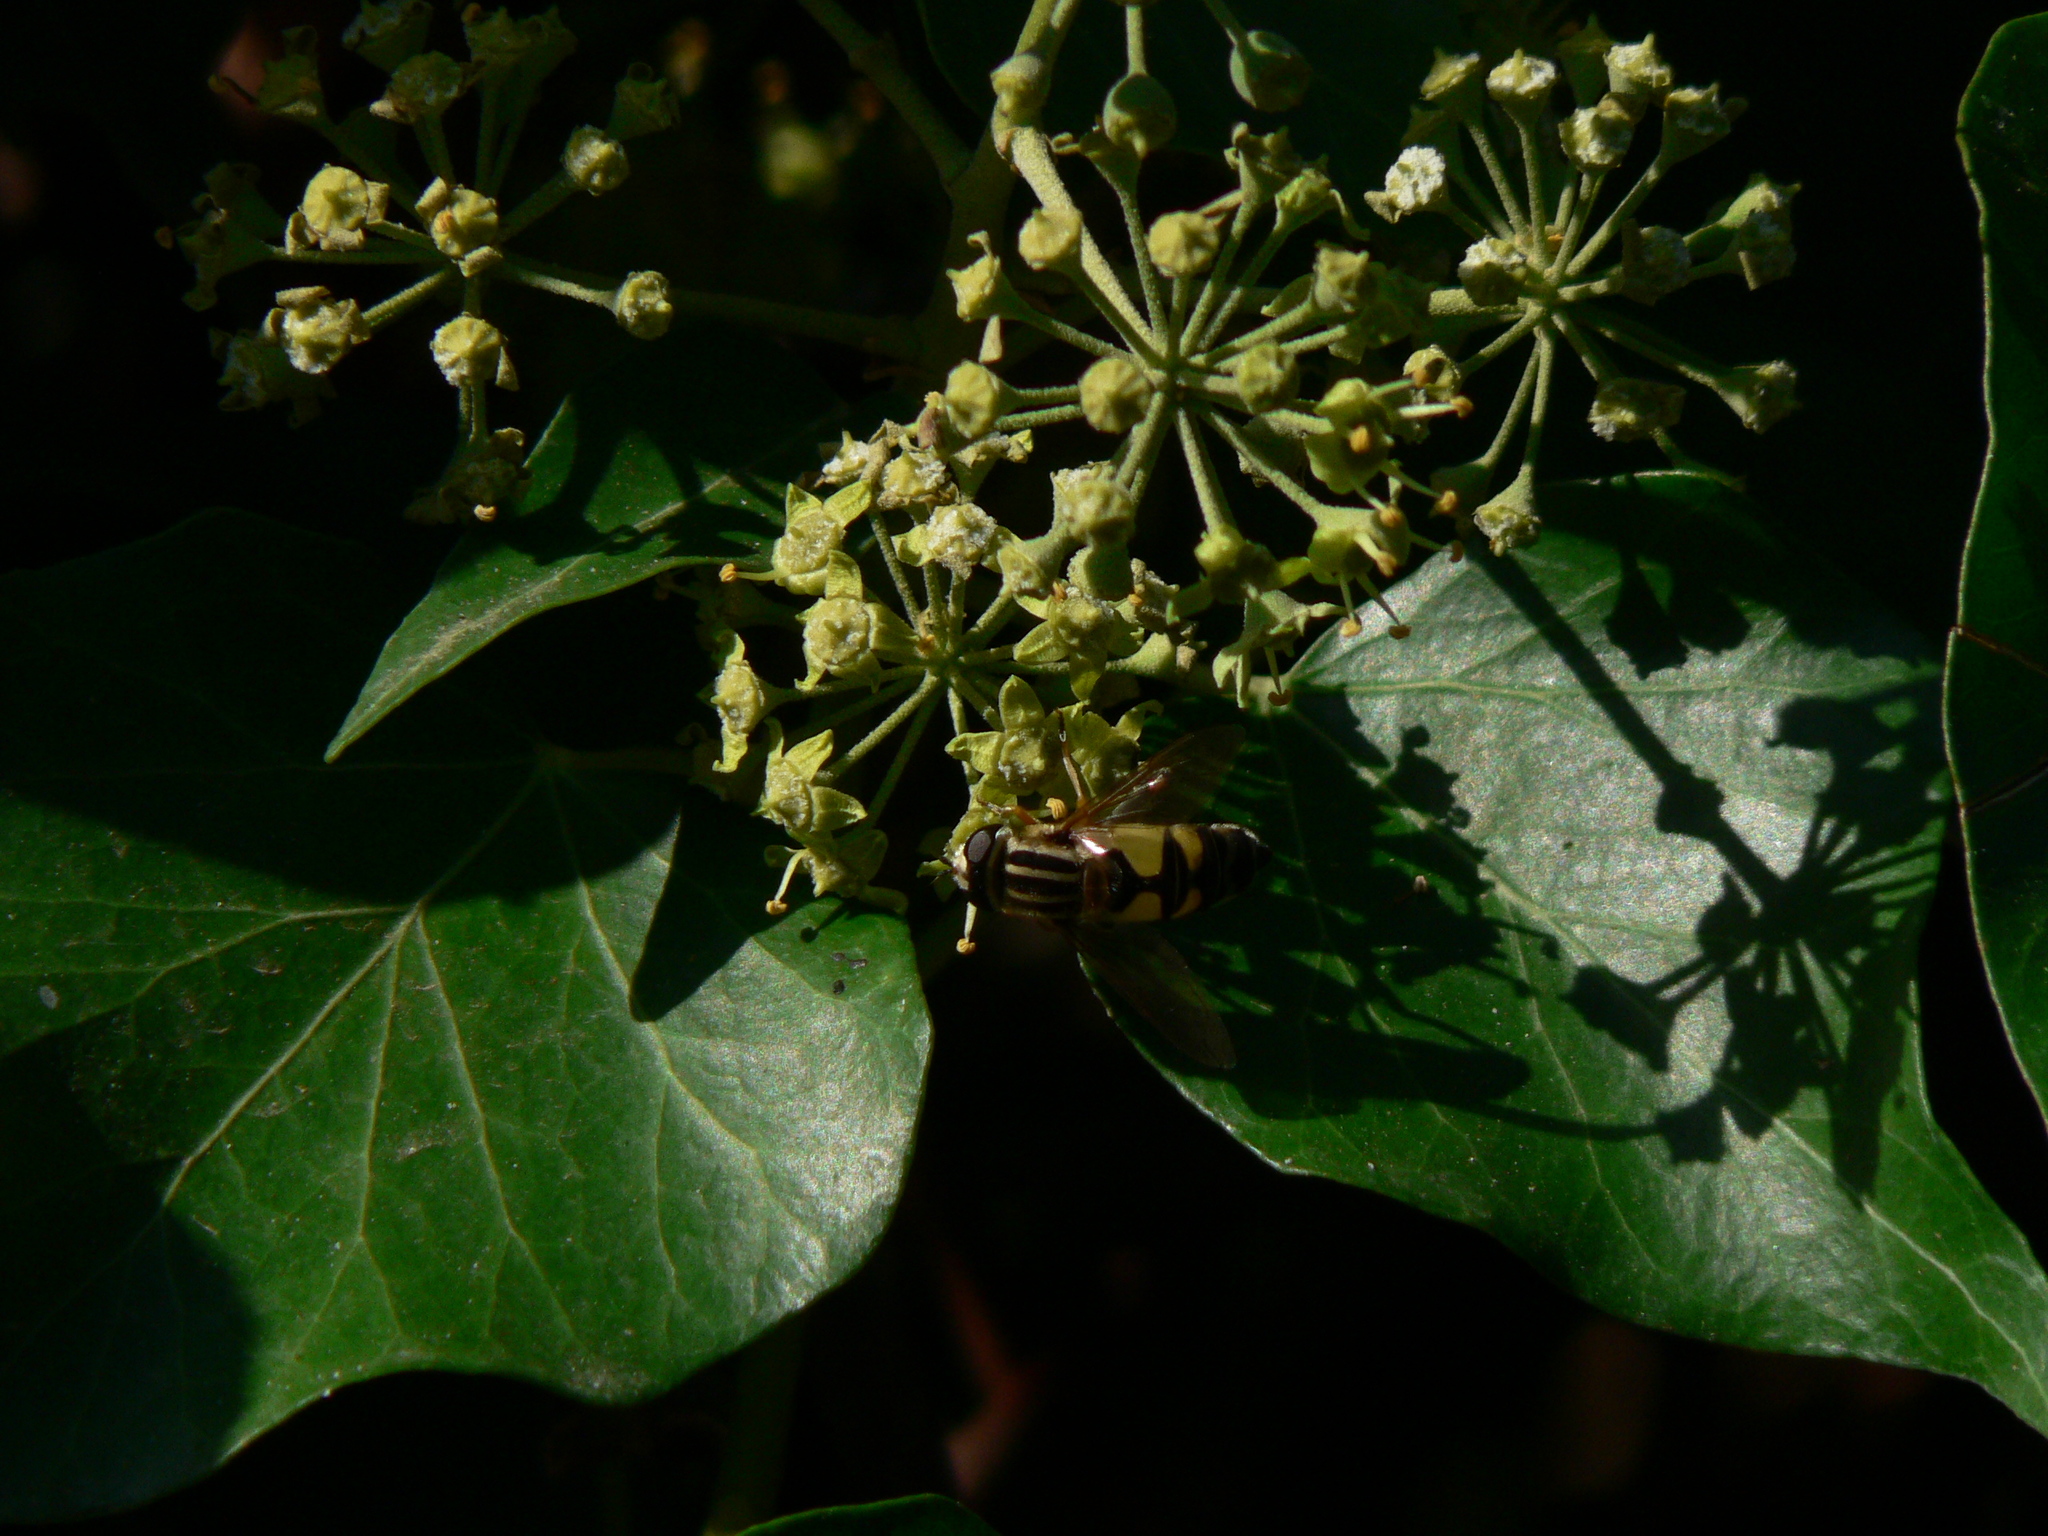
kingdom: Animalia
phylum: Arthropoda
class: Insecta
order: Diptera
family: Syrphidae
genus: Helophilus
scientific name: Helophilus trivittatus
